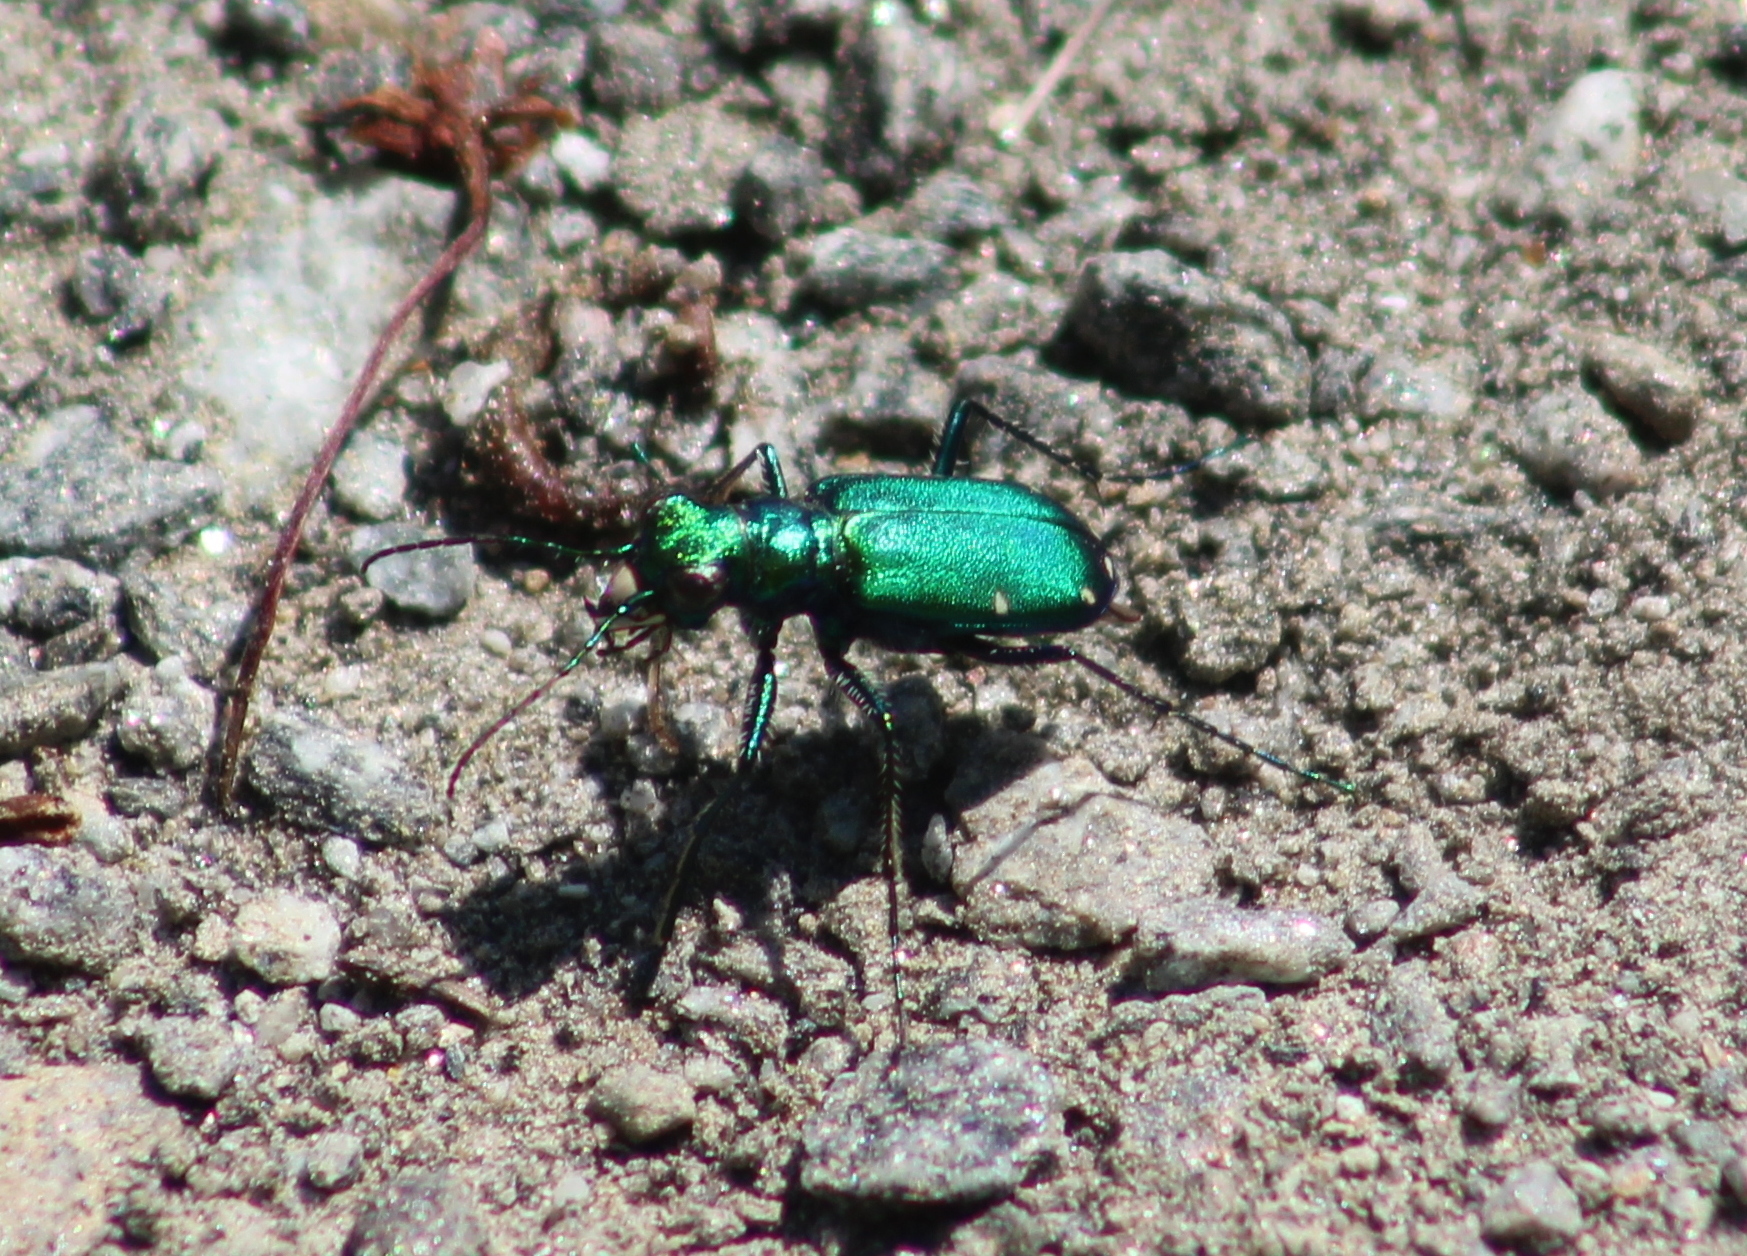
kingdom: Animalia
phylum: Arthropoda
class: Insecta
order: Coleoptera
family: Carabidae
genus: Cicindela
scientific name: Cicindela sexguttata
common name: Six-spotted tiger beetle
